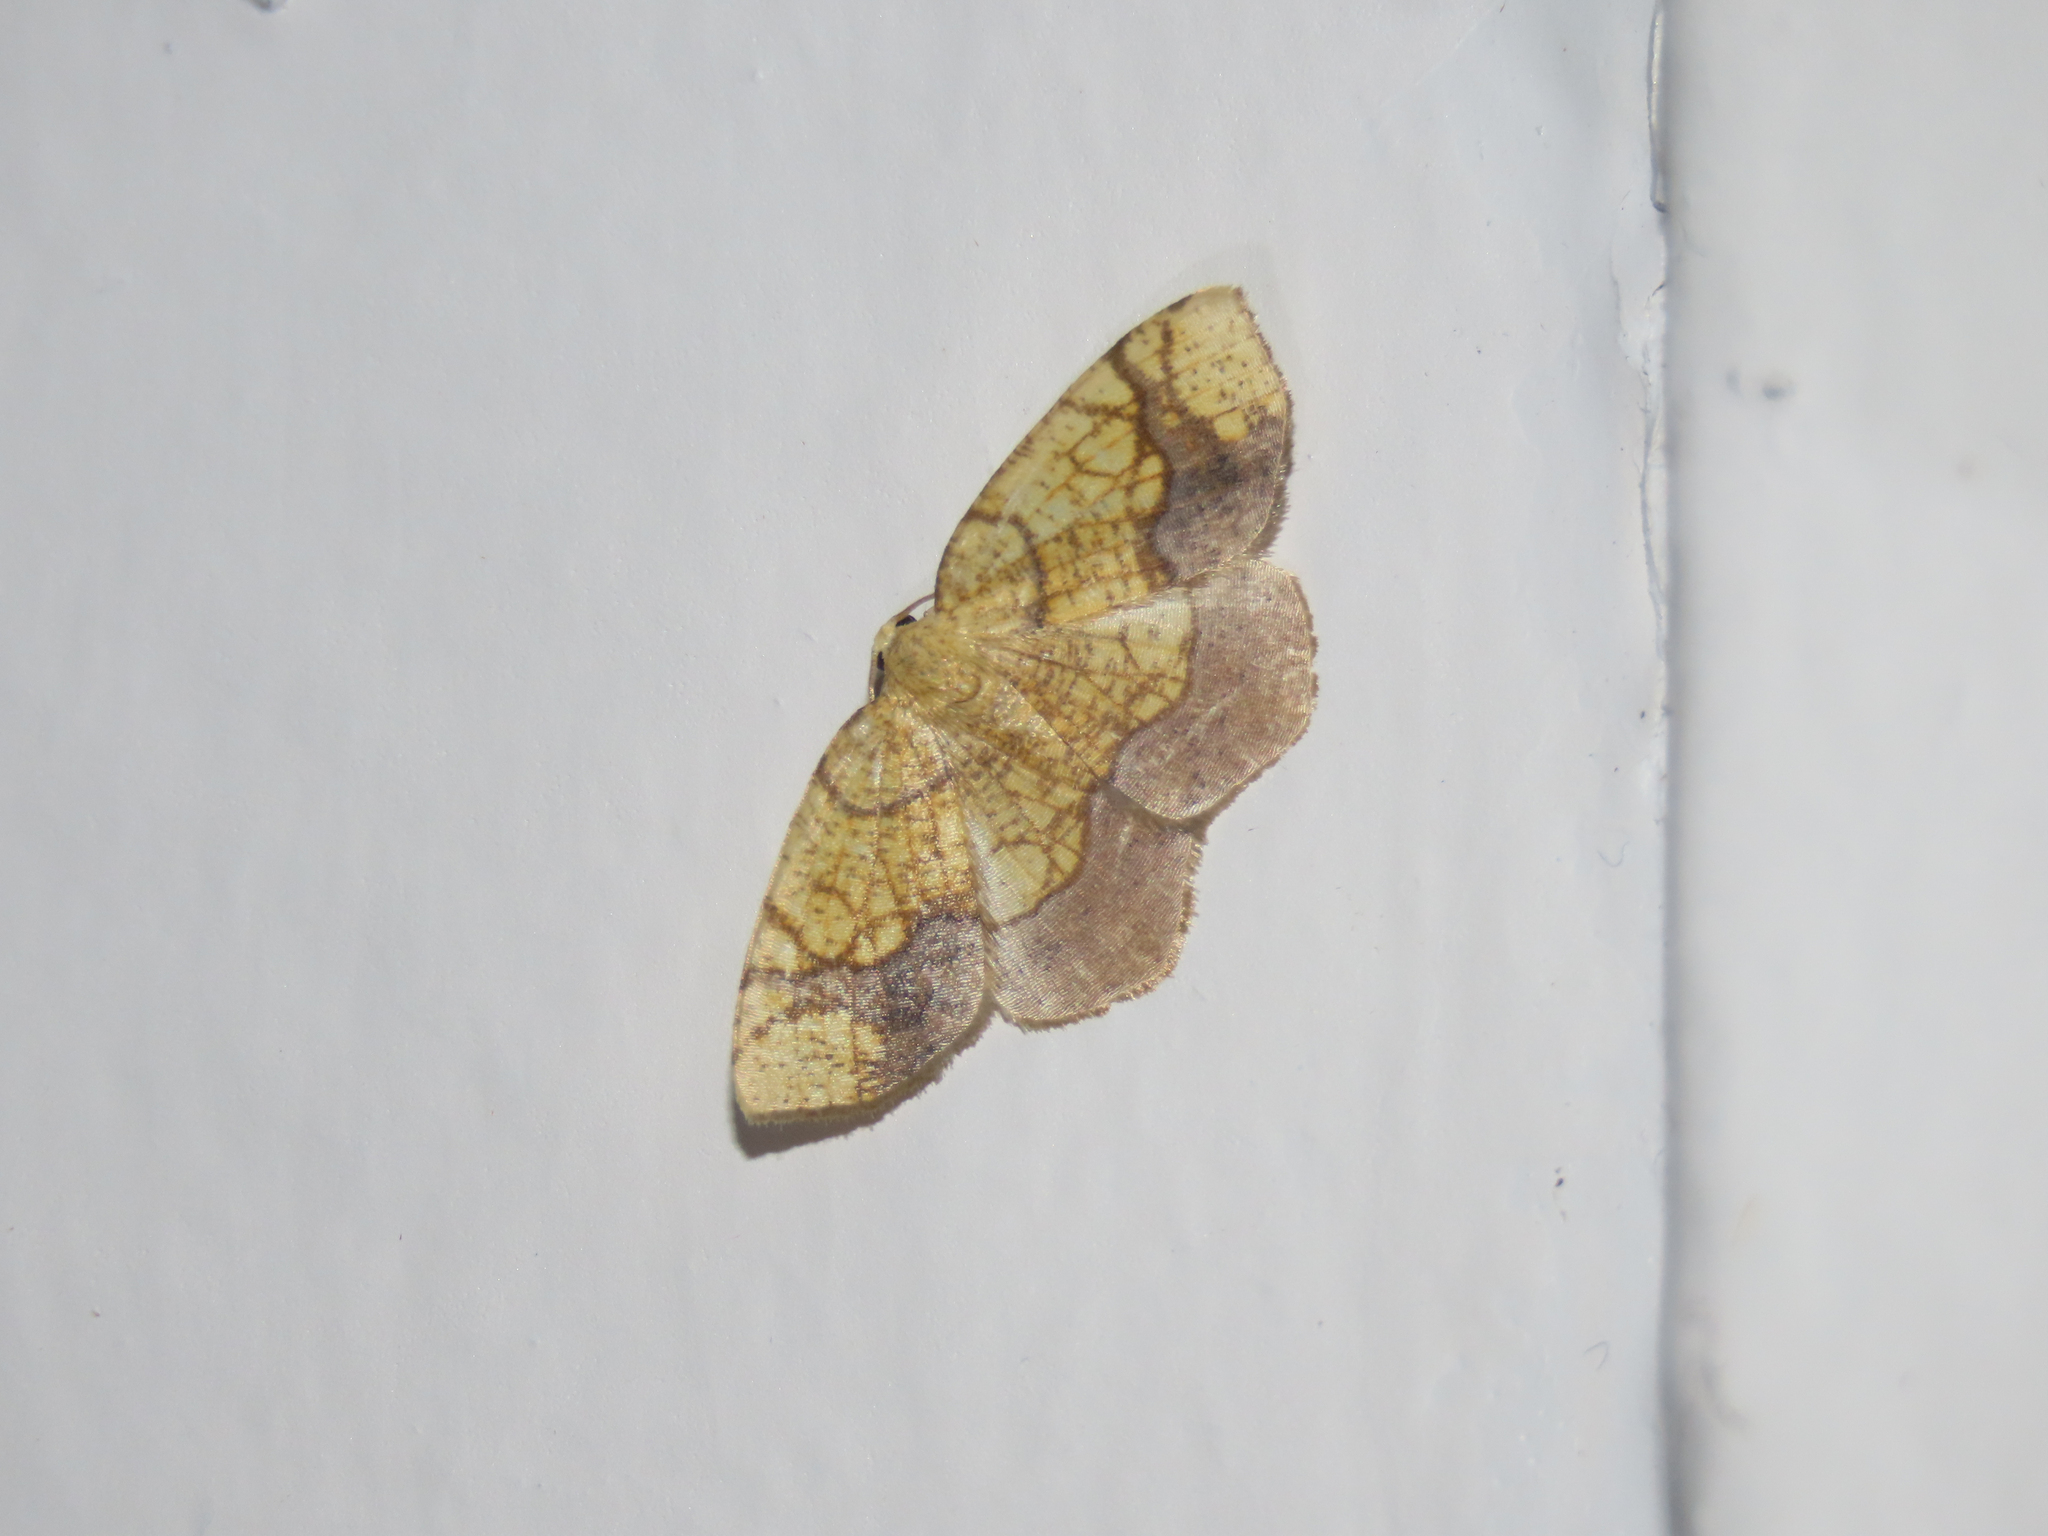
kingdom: Animalia
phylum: Arthropoda
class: Insecta
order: Lepidoptera
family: Geometridae
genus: Nematocampa
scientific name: Nematocampa resistaria
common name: Horned spanworm moth
